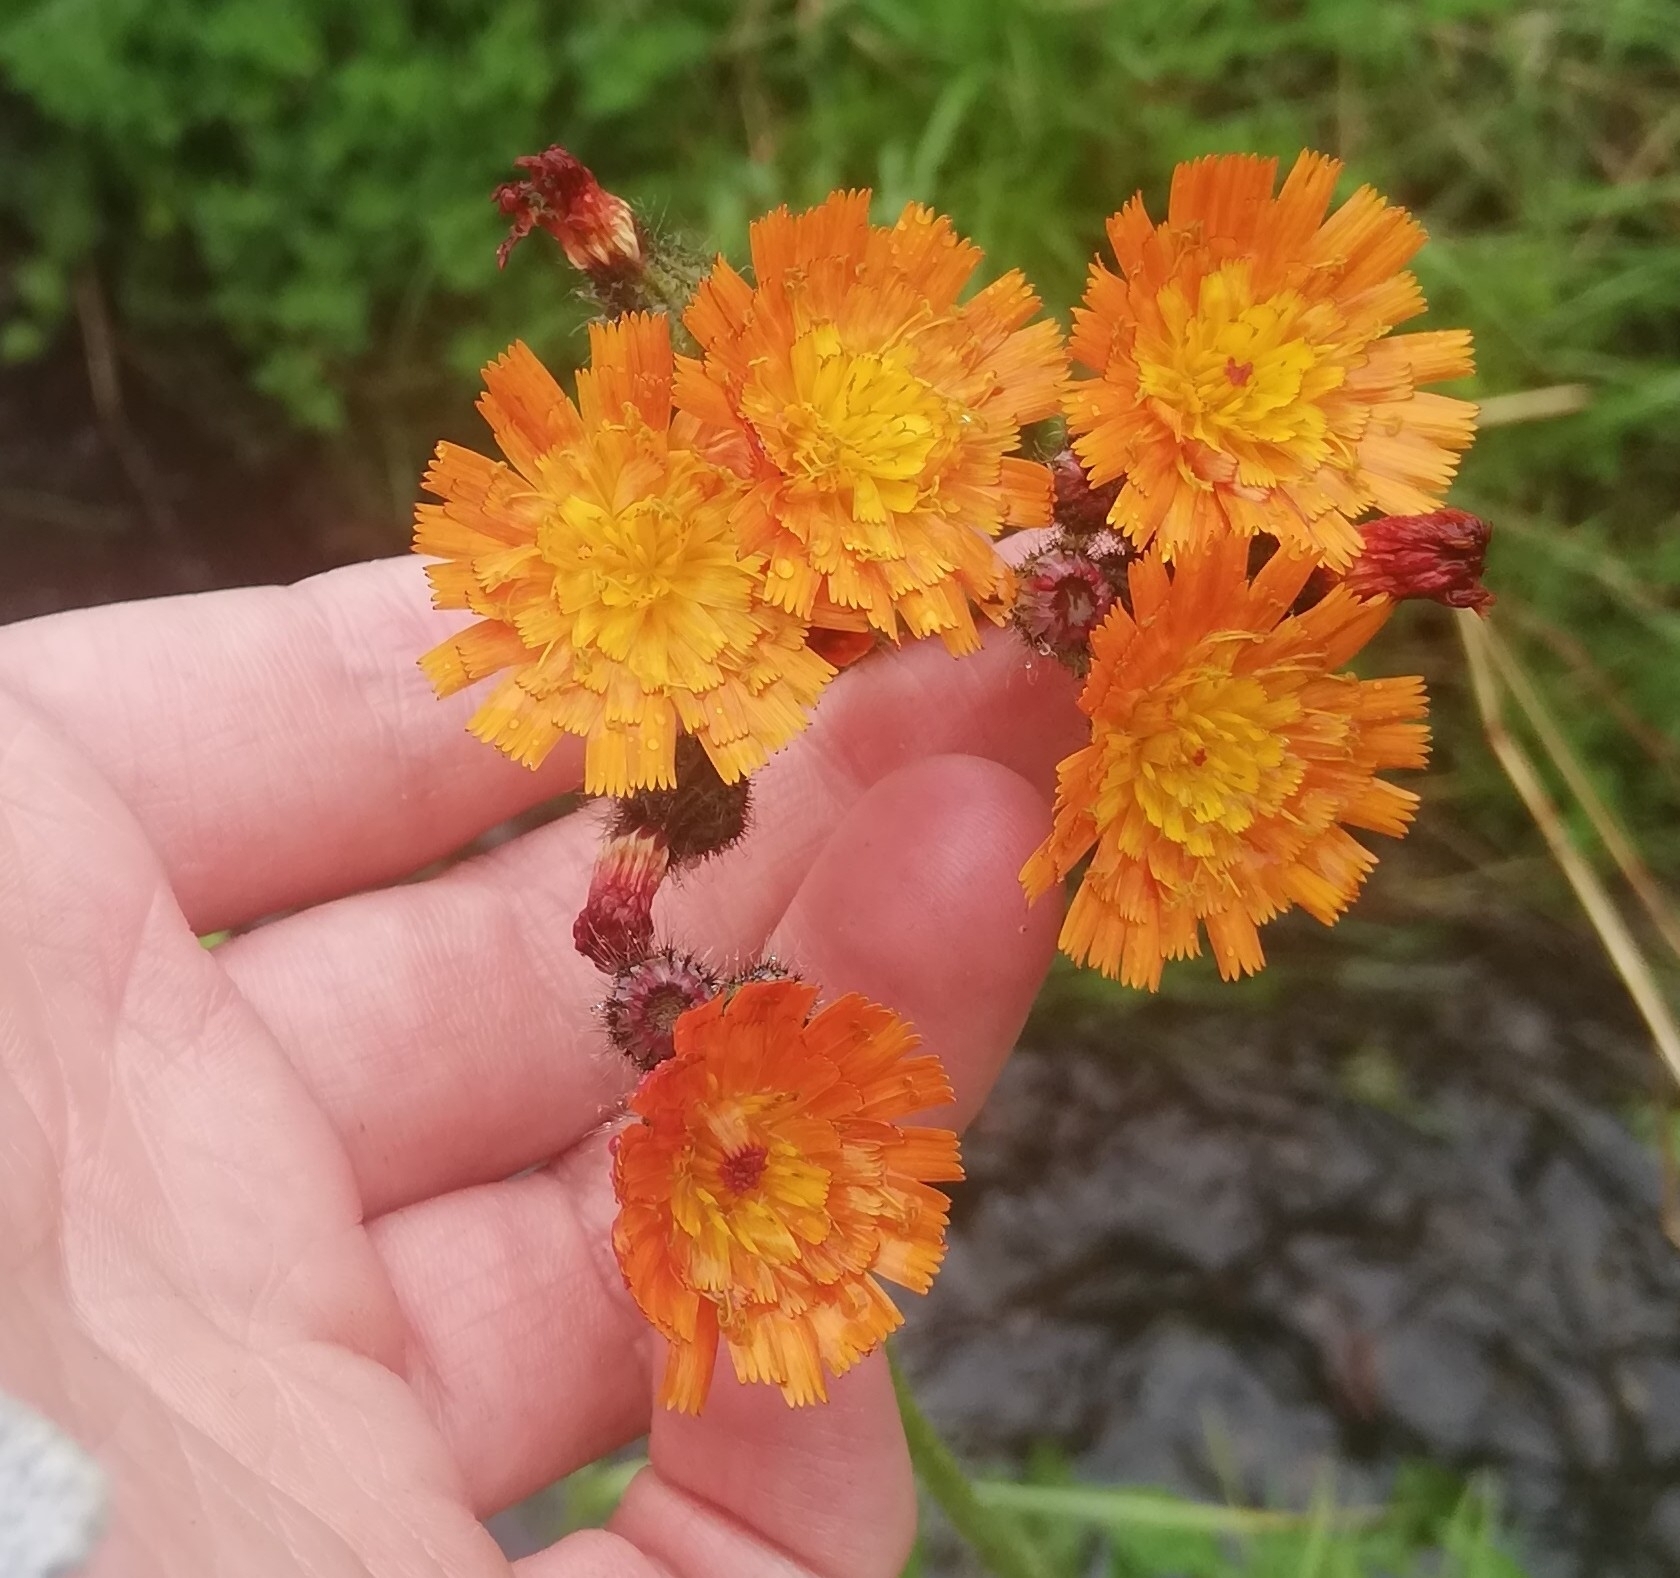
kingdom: Plantae
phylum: Tracheophyta
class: Magnoliopsida
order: Asterales
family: Asteraceae
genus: Pilosella
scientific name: Pilosella aurantiaca
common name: Fox-and-cubs
